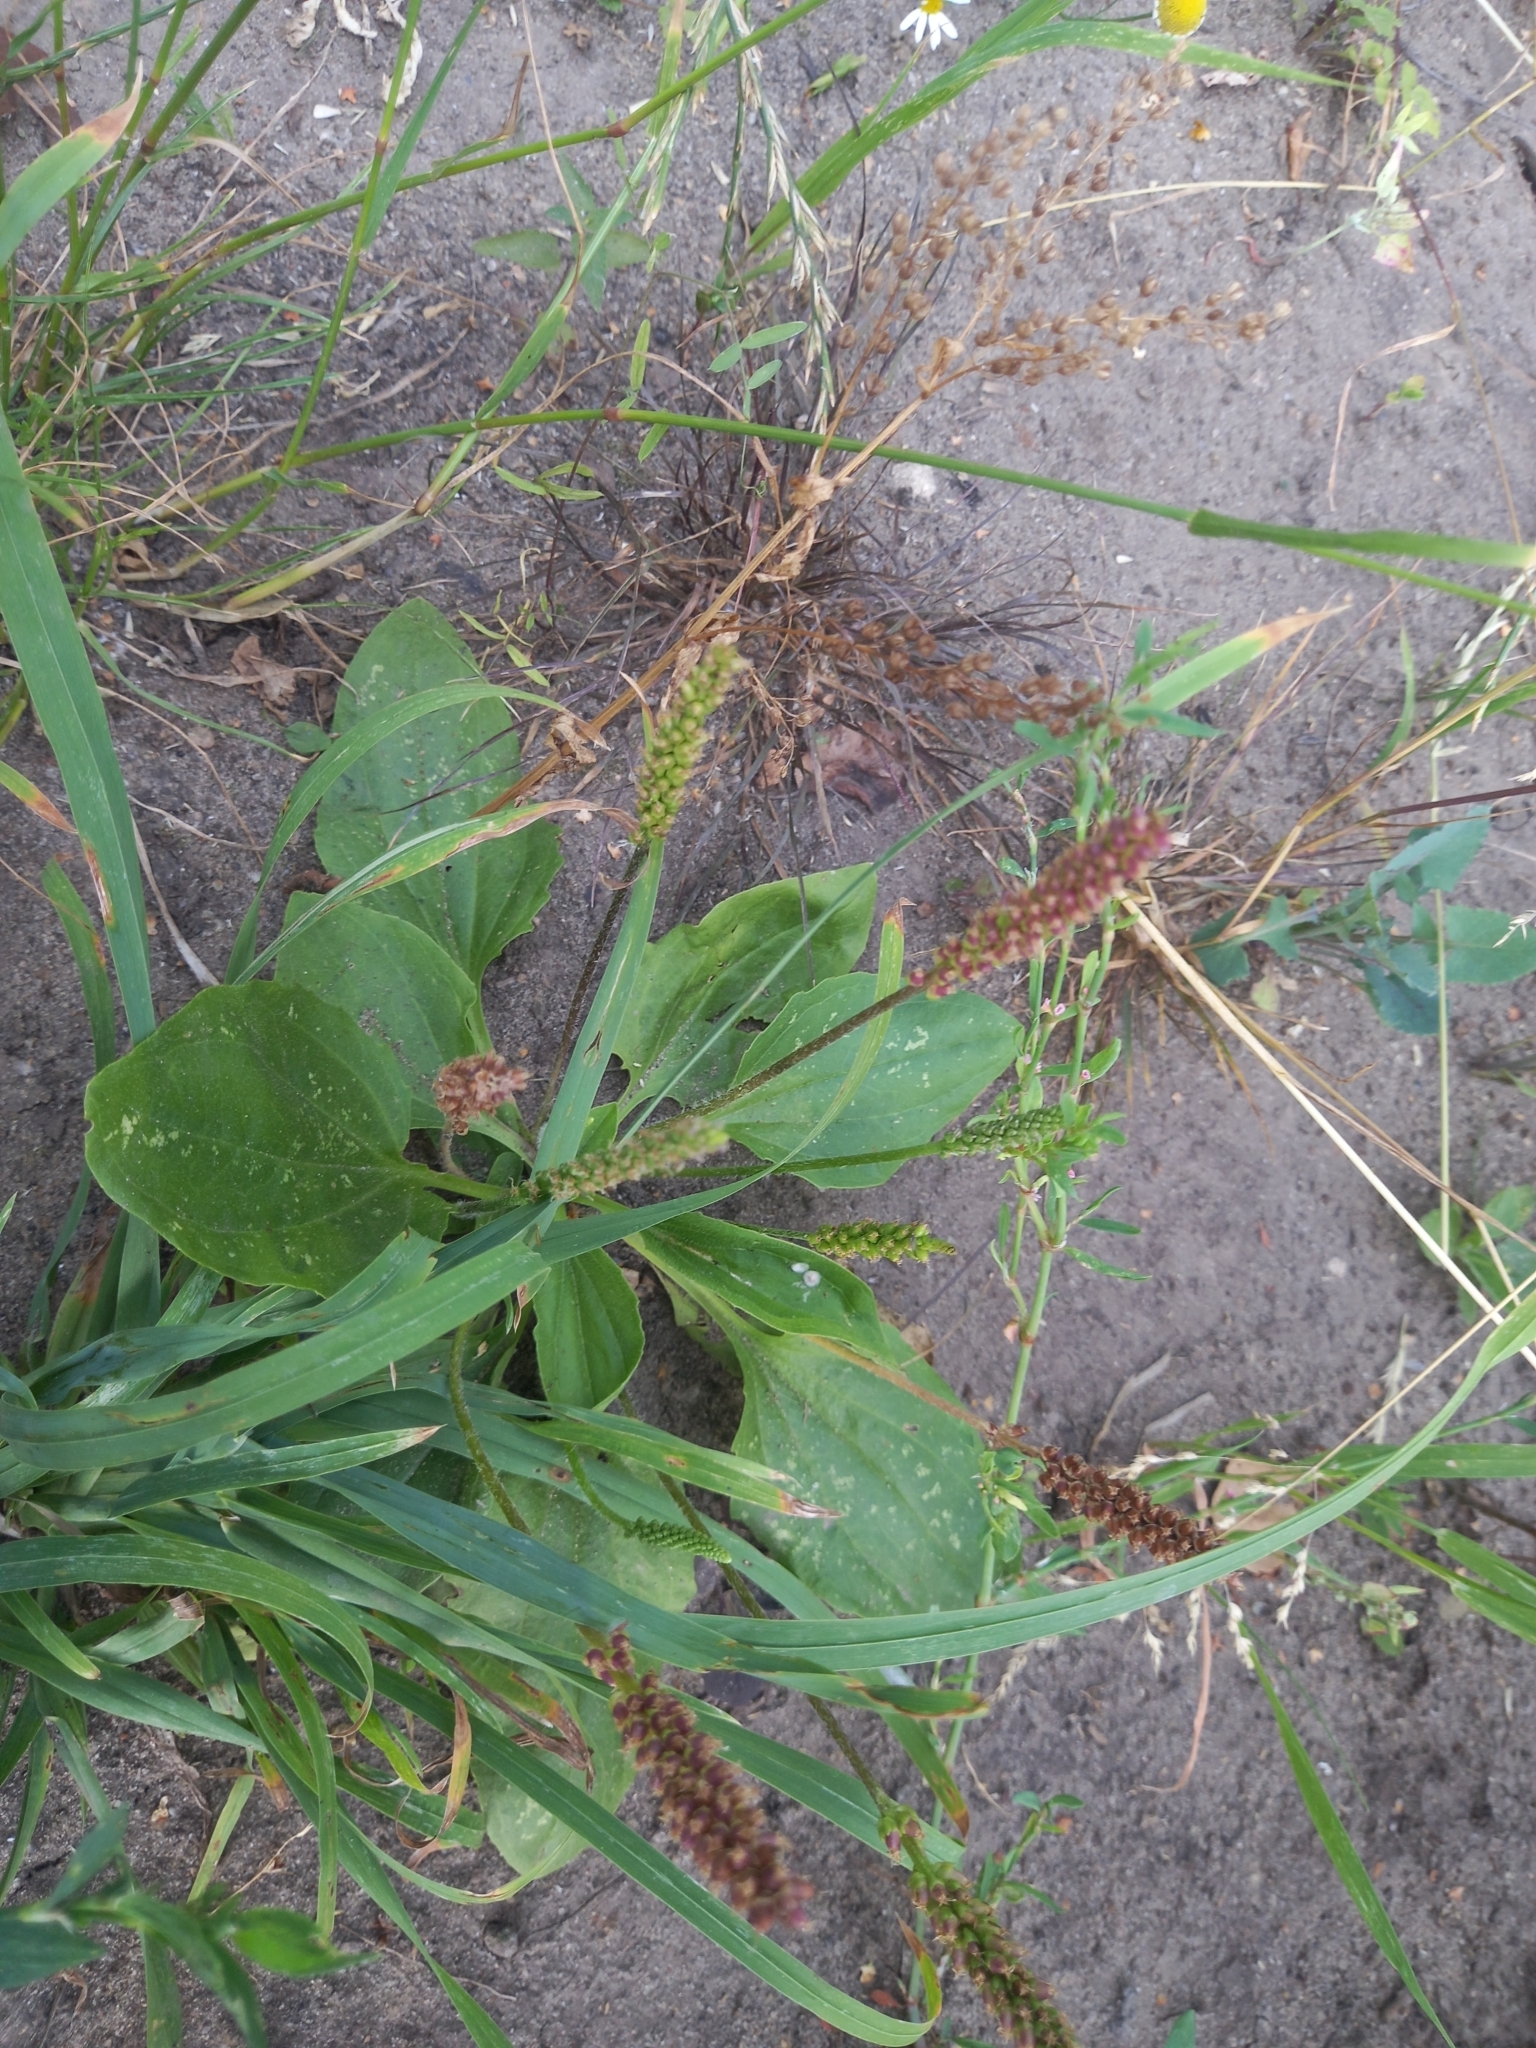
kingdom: Plantae
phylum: Tracheophyta
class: Magnoliopsida
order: Lamiales
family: Plantaginaceae
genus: Plantago
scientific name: Plantago major
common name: Common plantain
